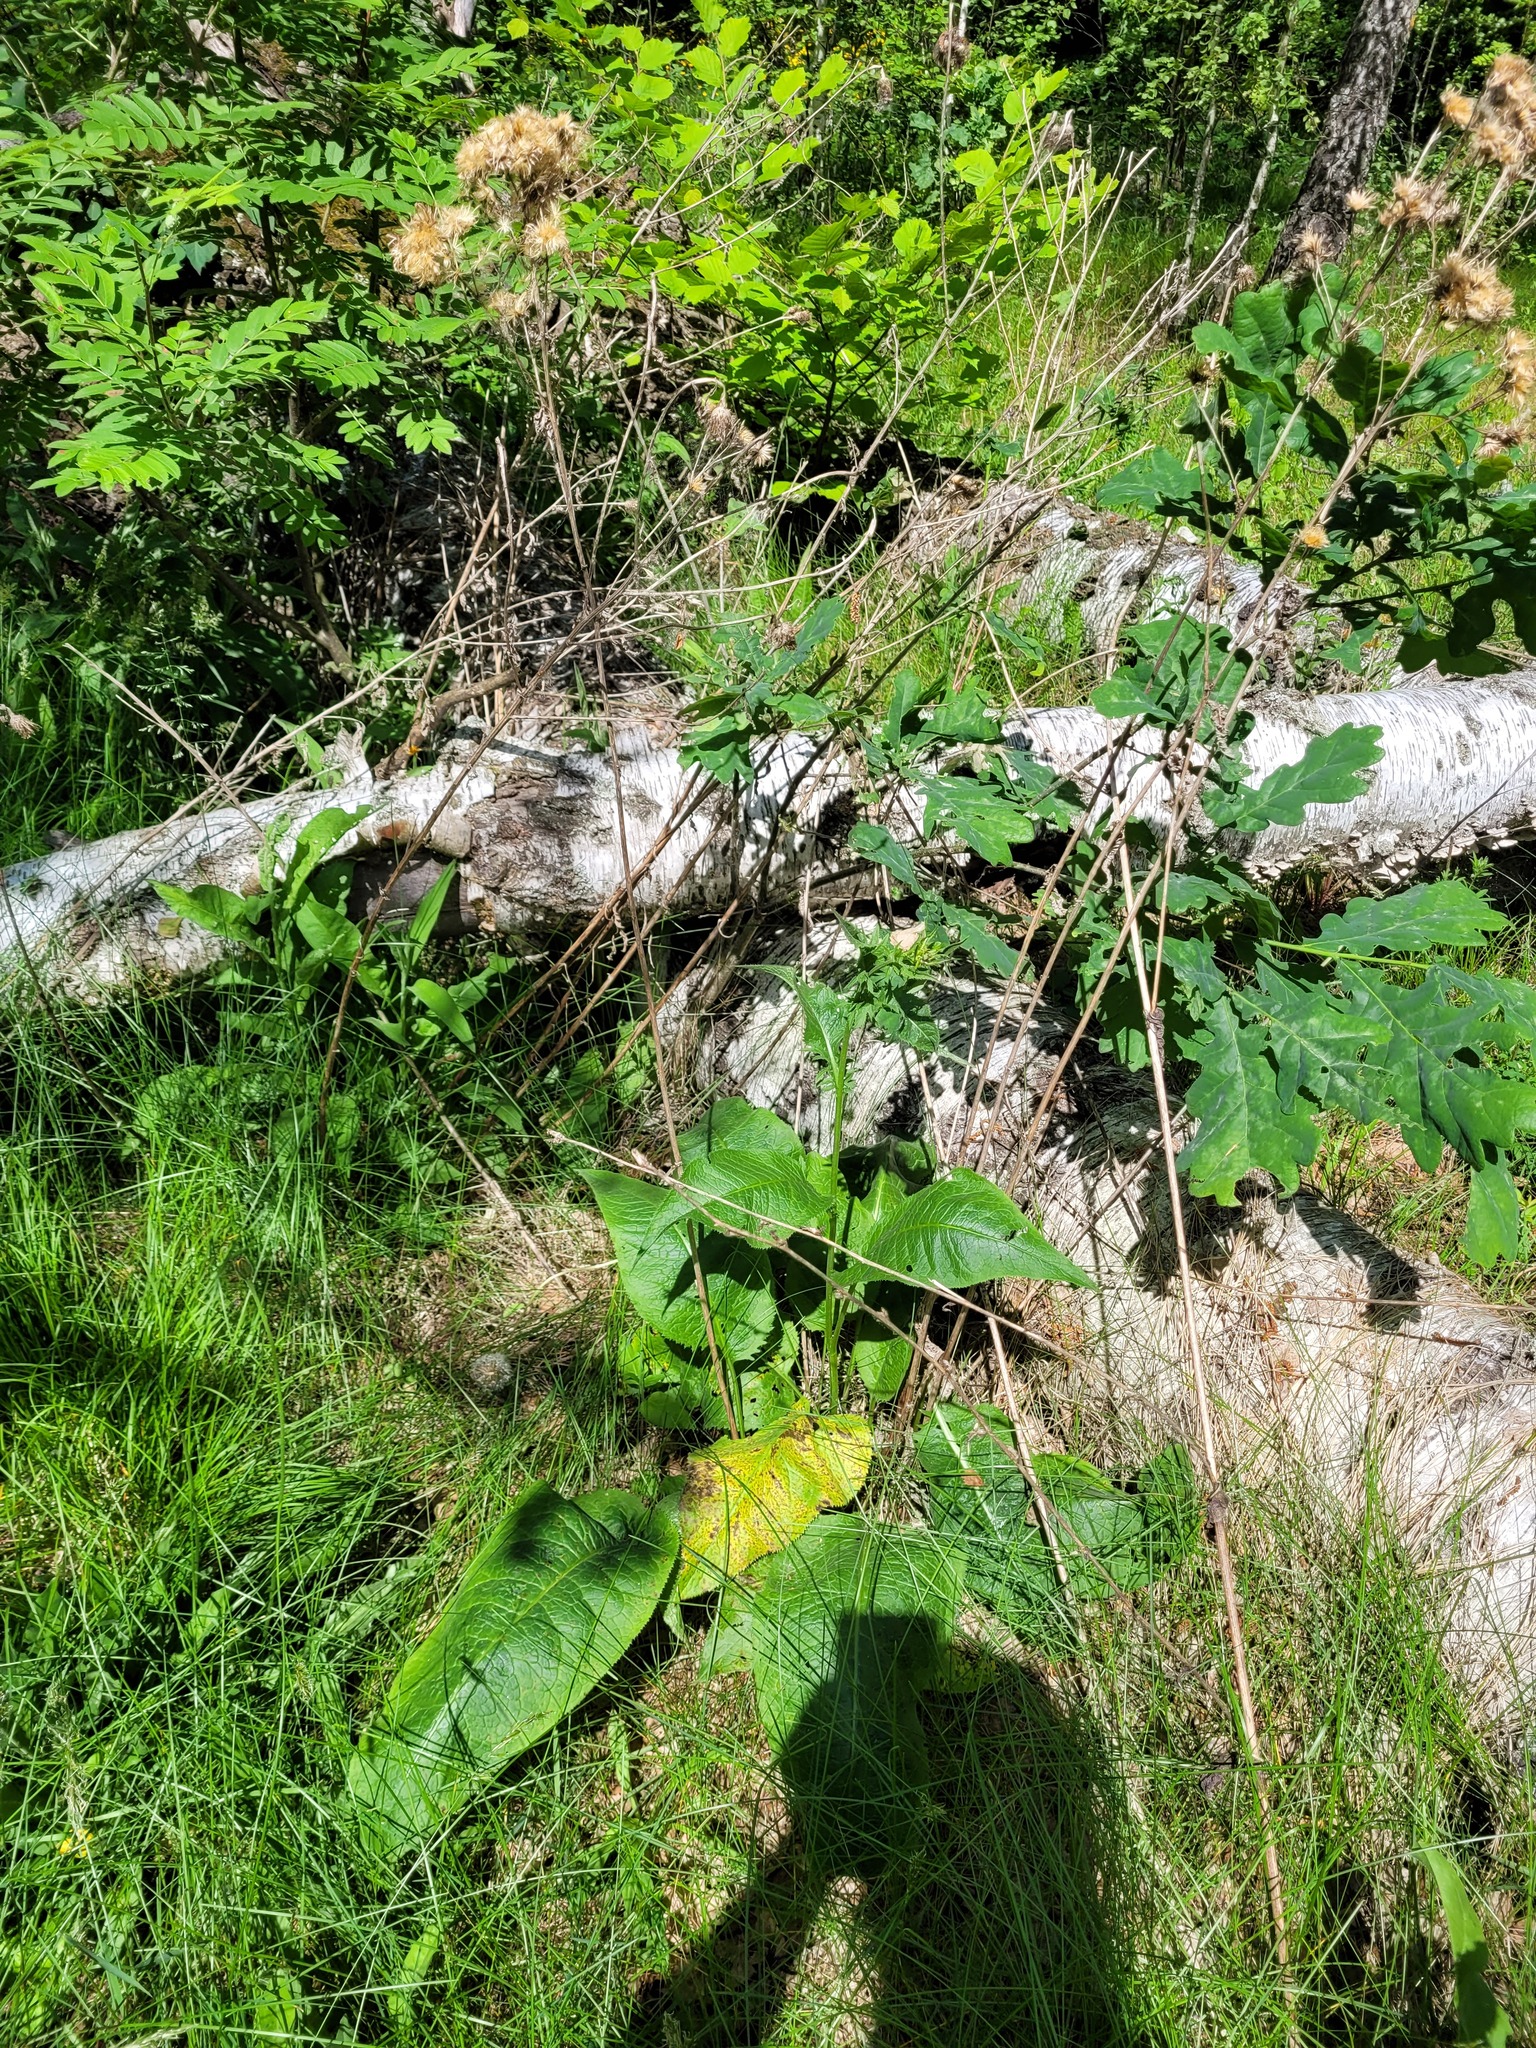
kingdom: Plantae
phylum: Tracheophyta
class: Magnoliopsida
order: Asterales
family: Asteraceae
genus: Serratula
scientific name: Serratula tinctoria
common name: Saw-wort
